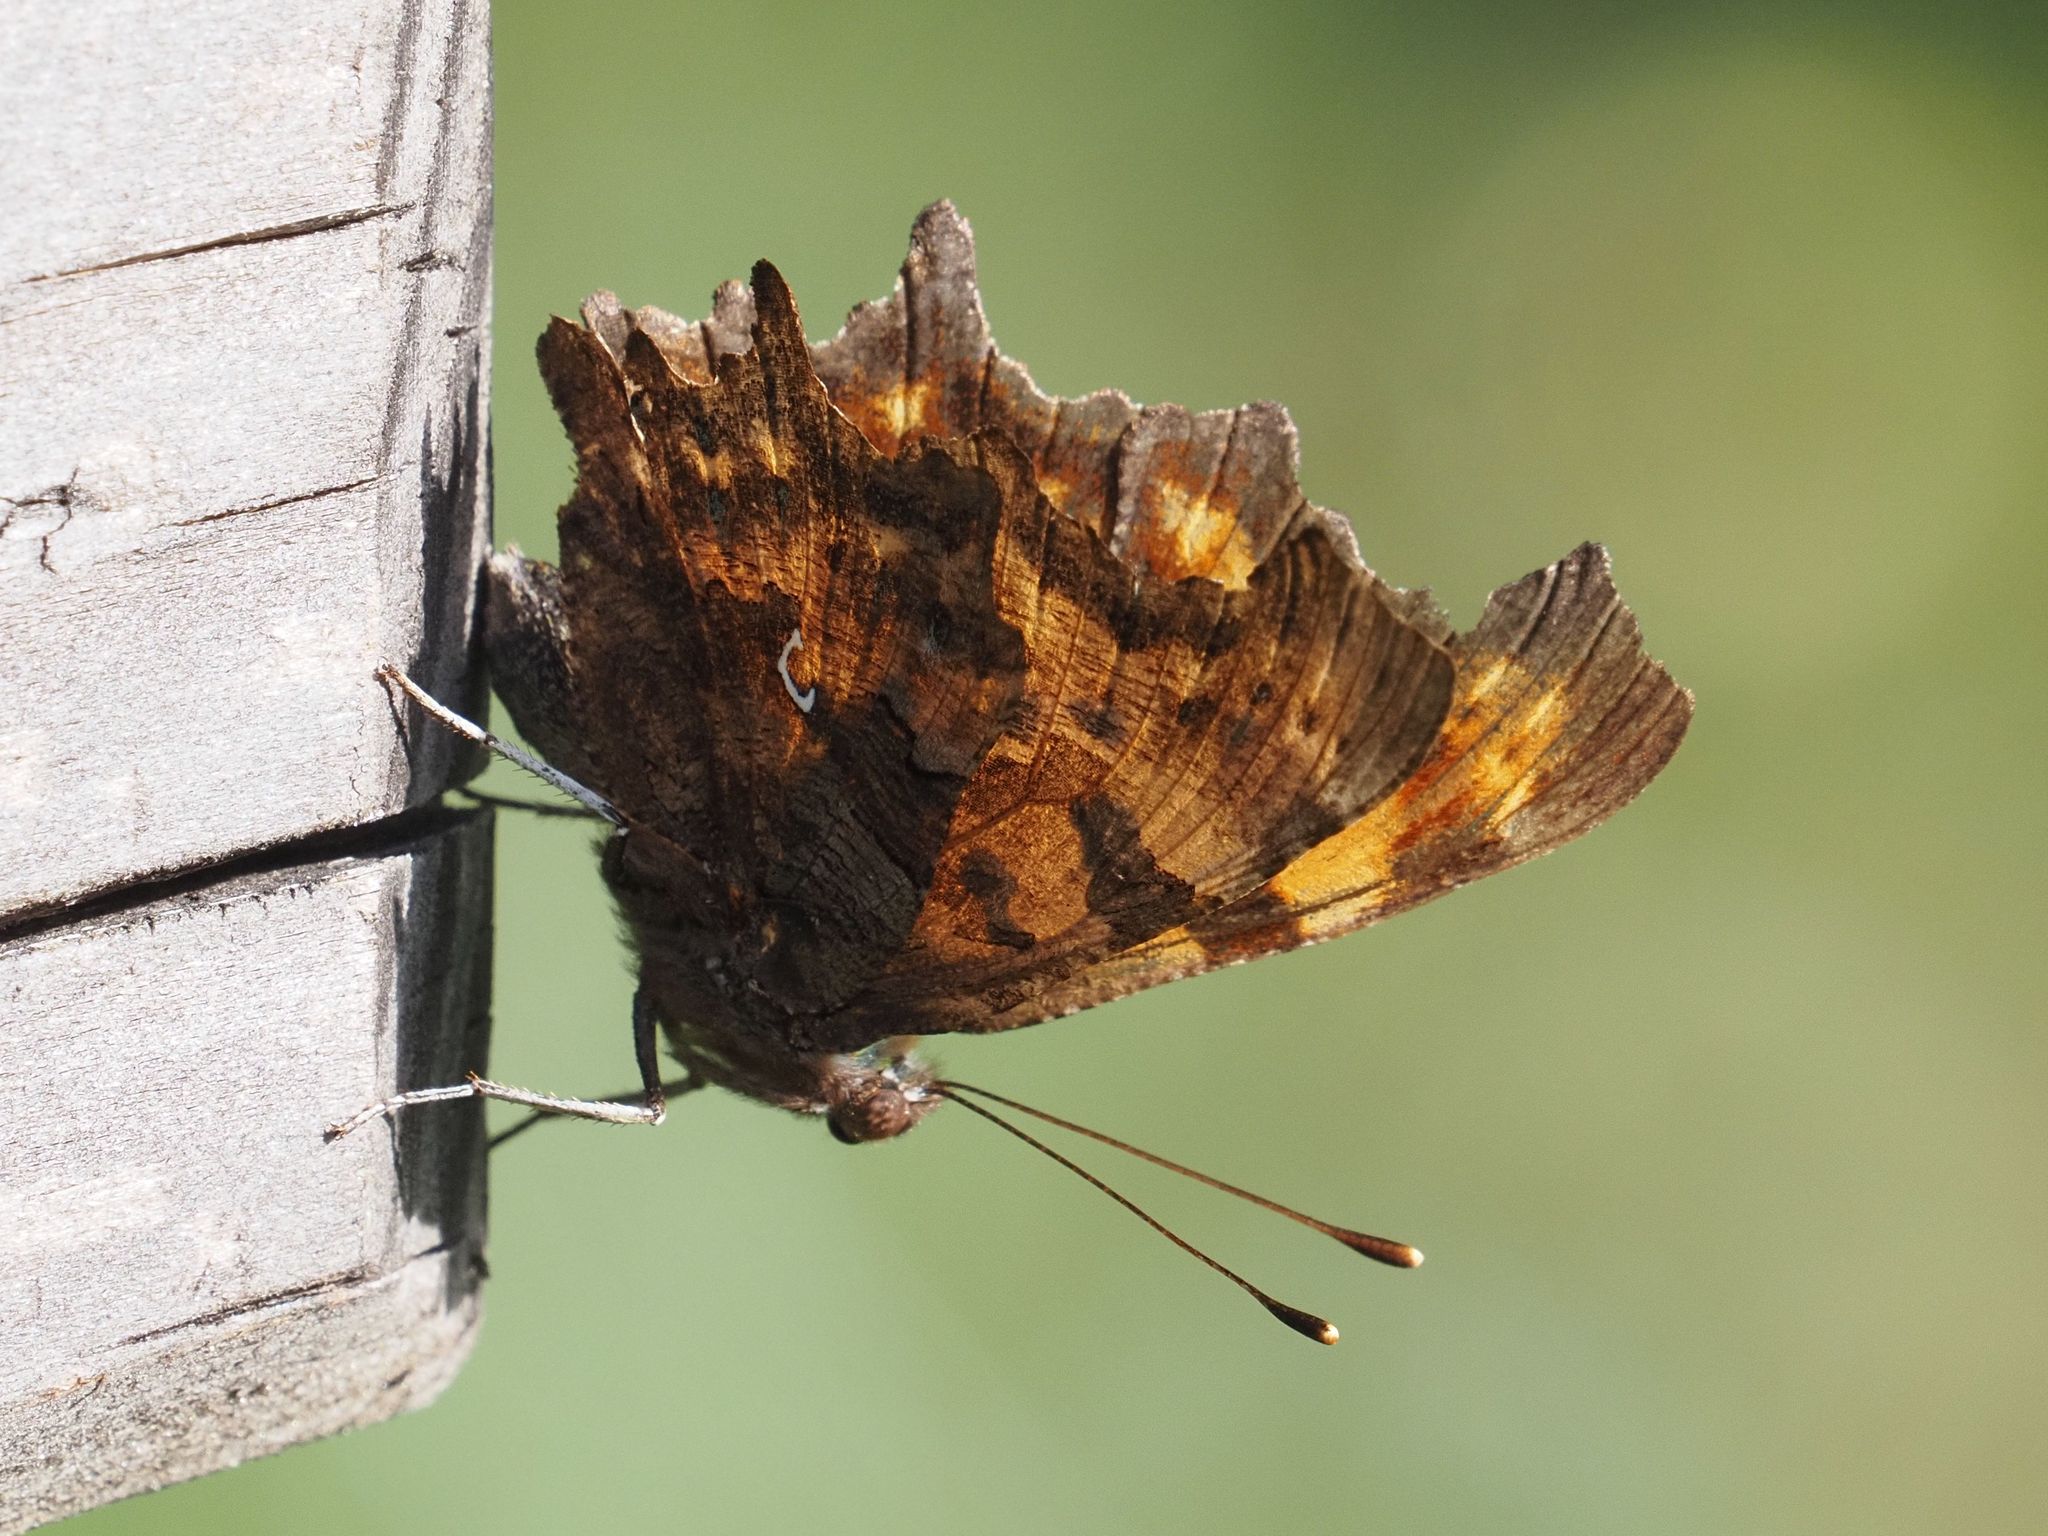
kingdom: Animalia
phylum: Arthropoda
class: Insecta
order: Lepidoptera
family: Nymphalidae
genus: Polygonia
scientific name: Polygonia c-album
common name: Comma
